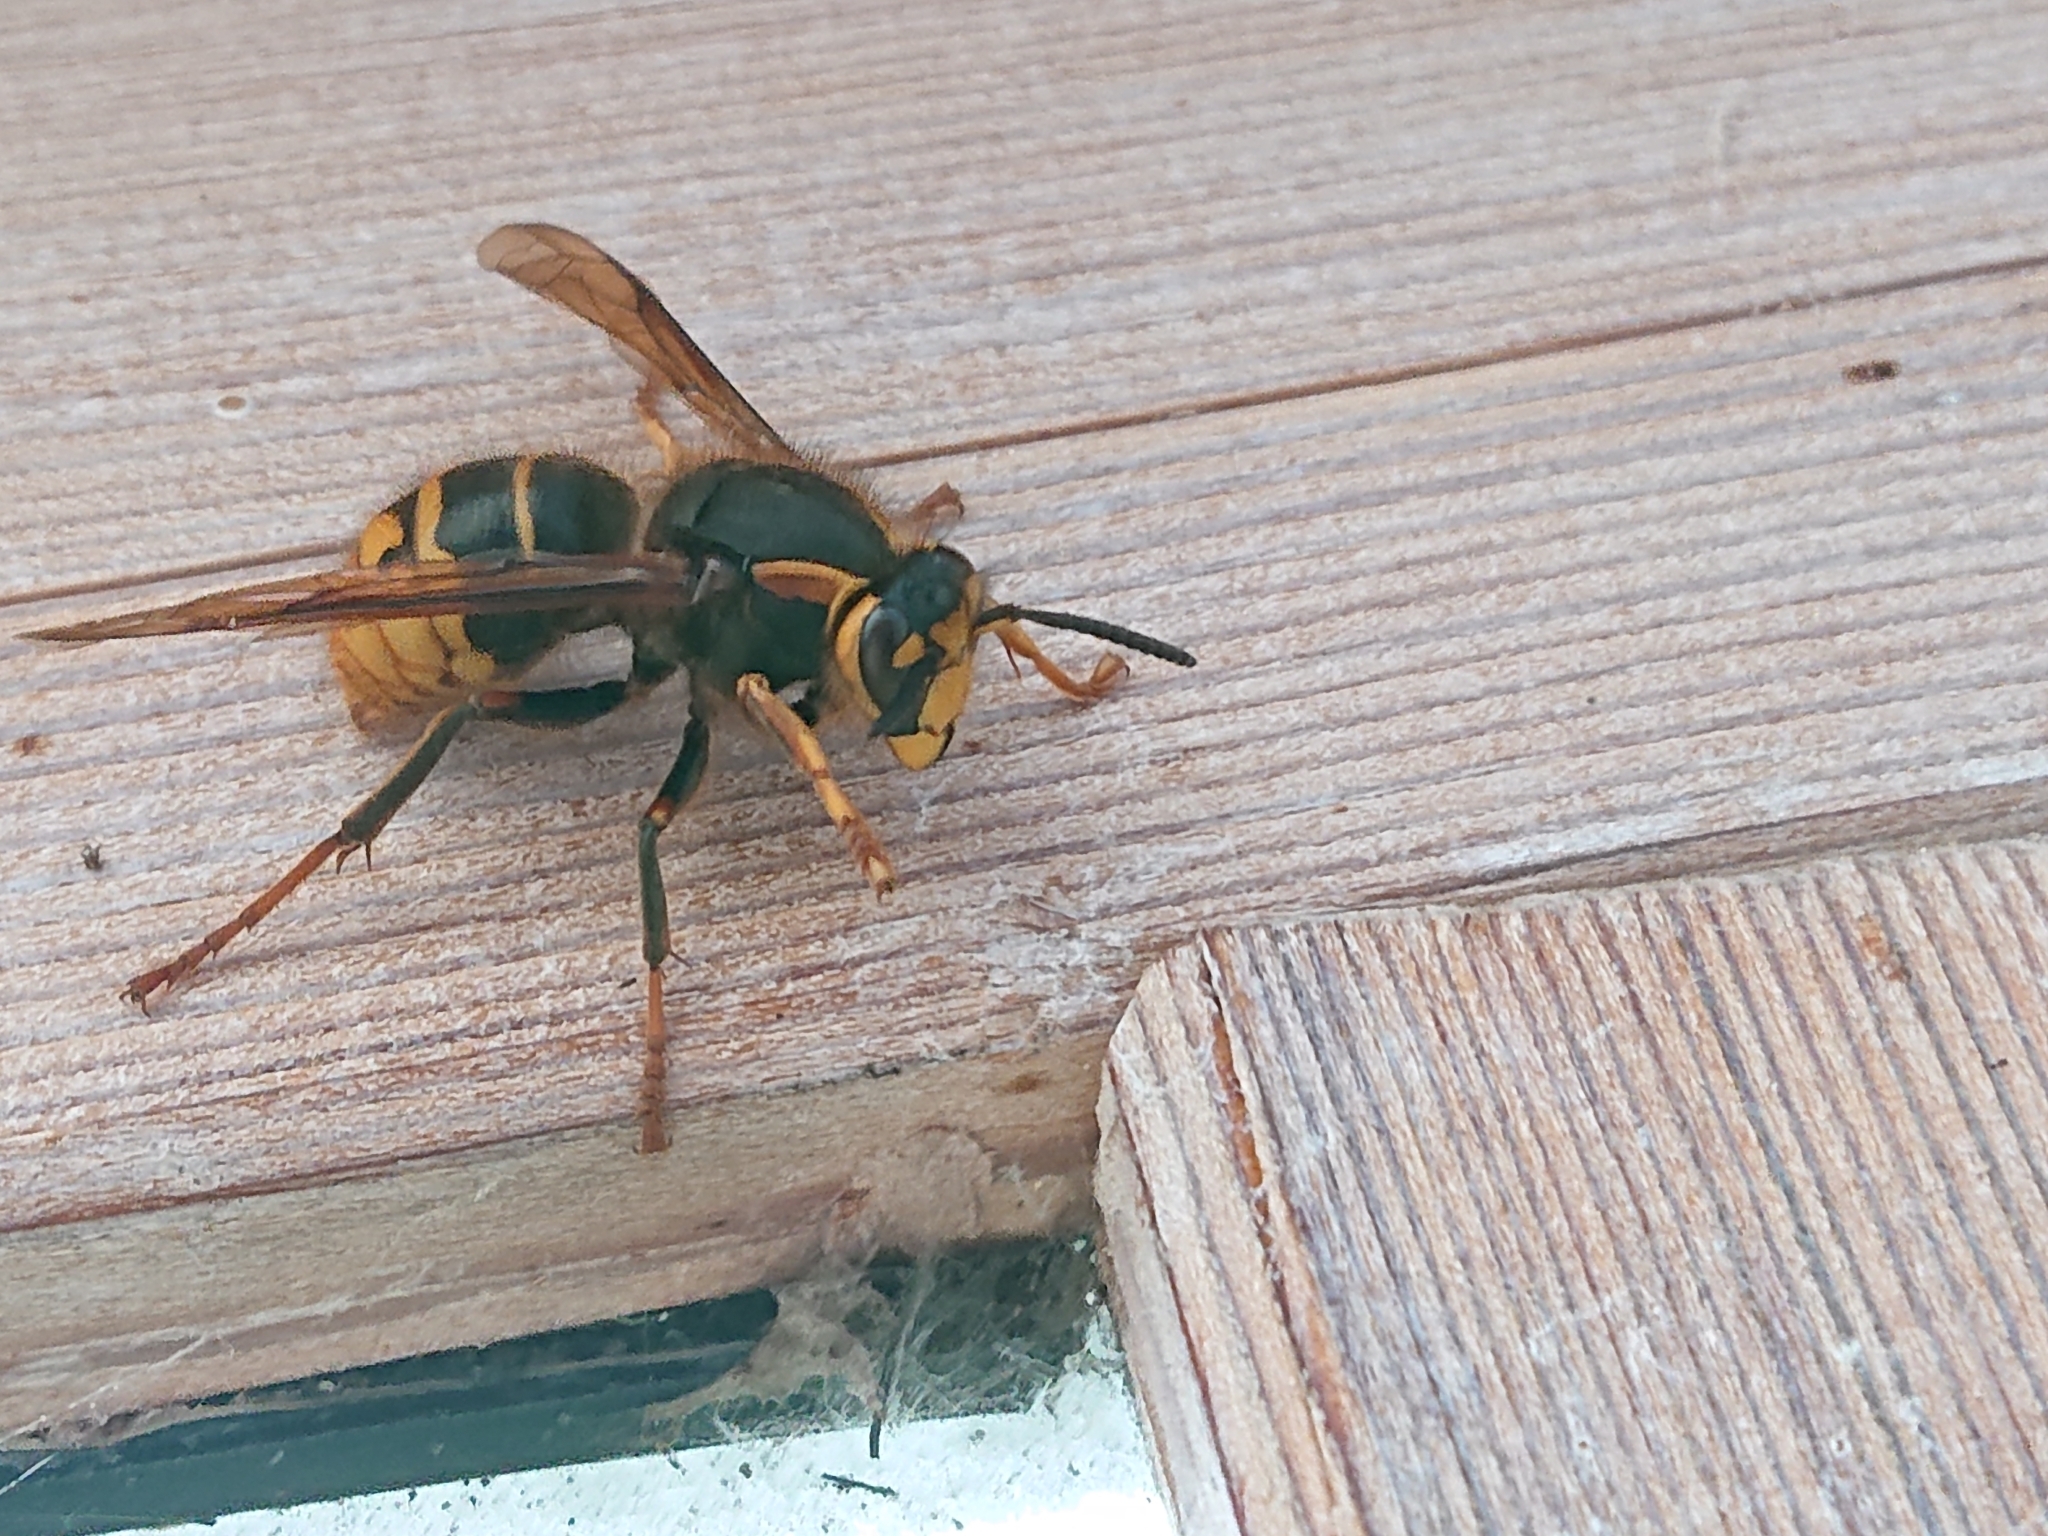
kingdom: Animalia
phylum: Arthropoda
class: Insecta
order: Hymenoptera
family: Vespidae
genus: Dolichovespula
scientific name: Dolichovespula media
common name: Median wasp
